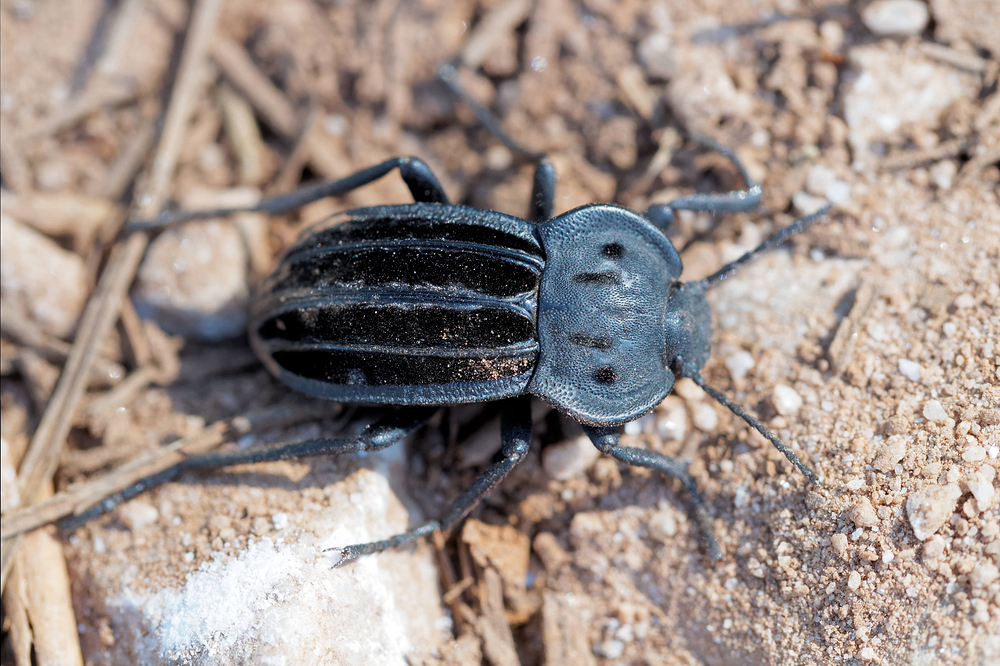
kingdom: Animalia
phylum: Arthropoda
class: Insecta
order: Coleoptera
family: Tenebrionidae
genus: Alphasida
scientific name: Alphasida holosericea
